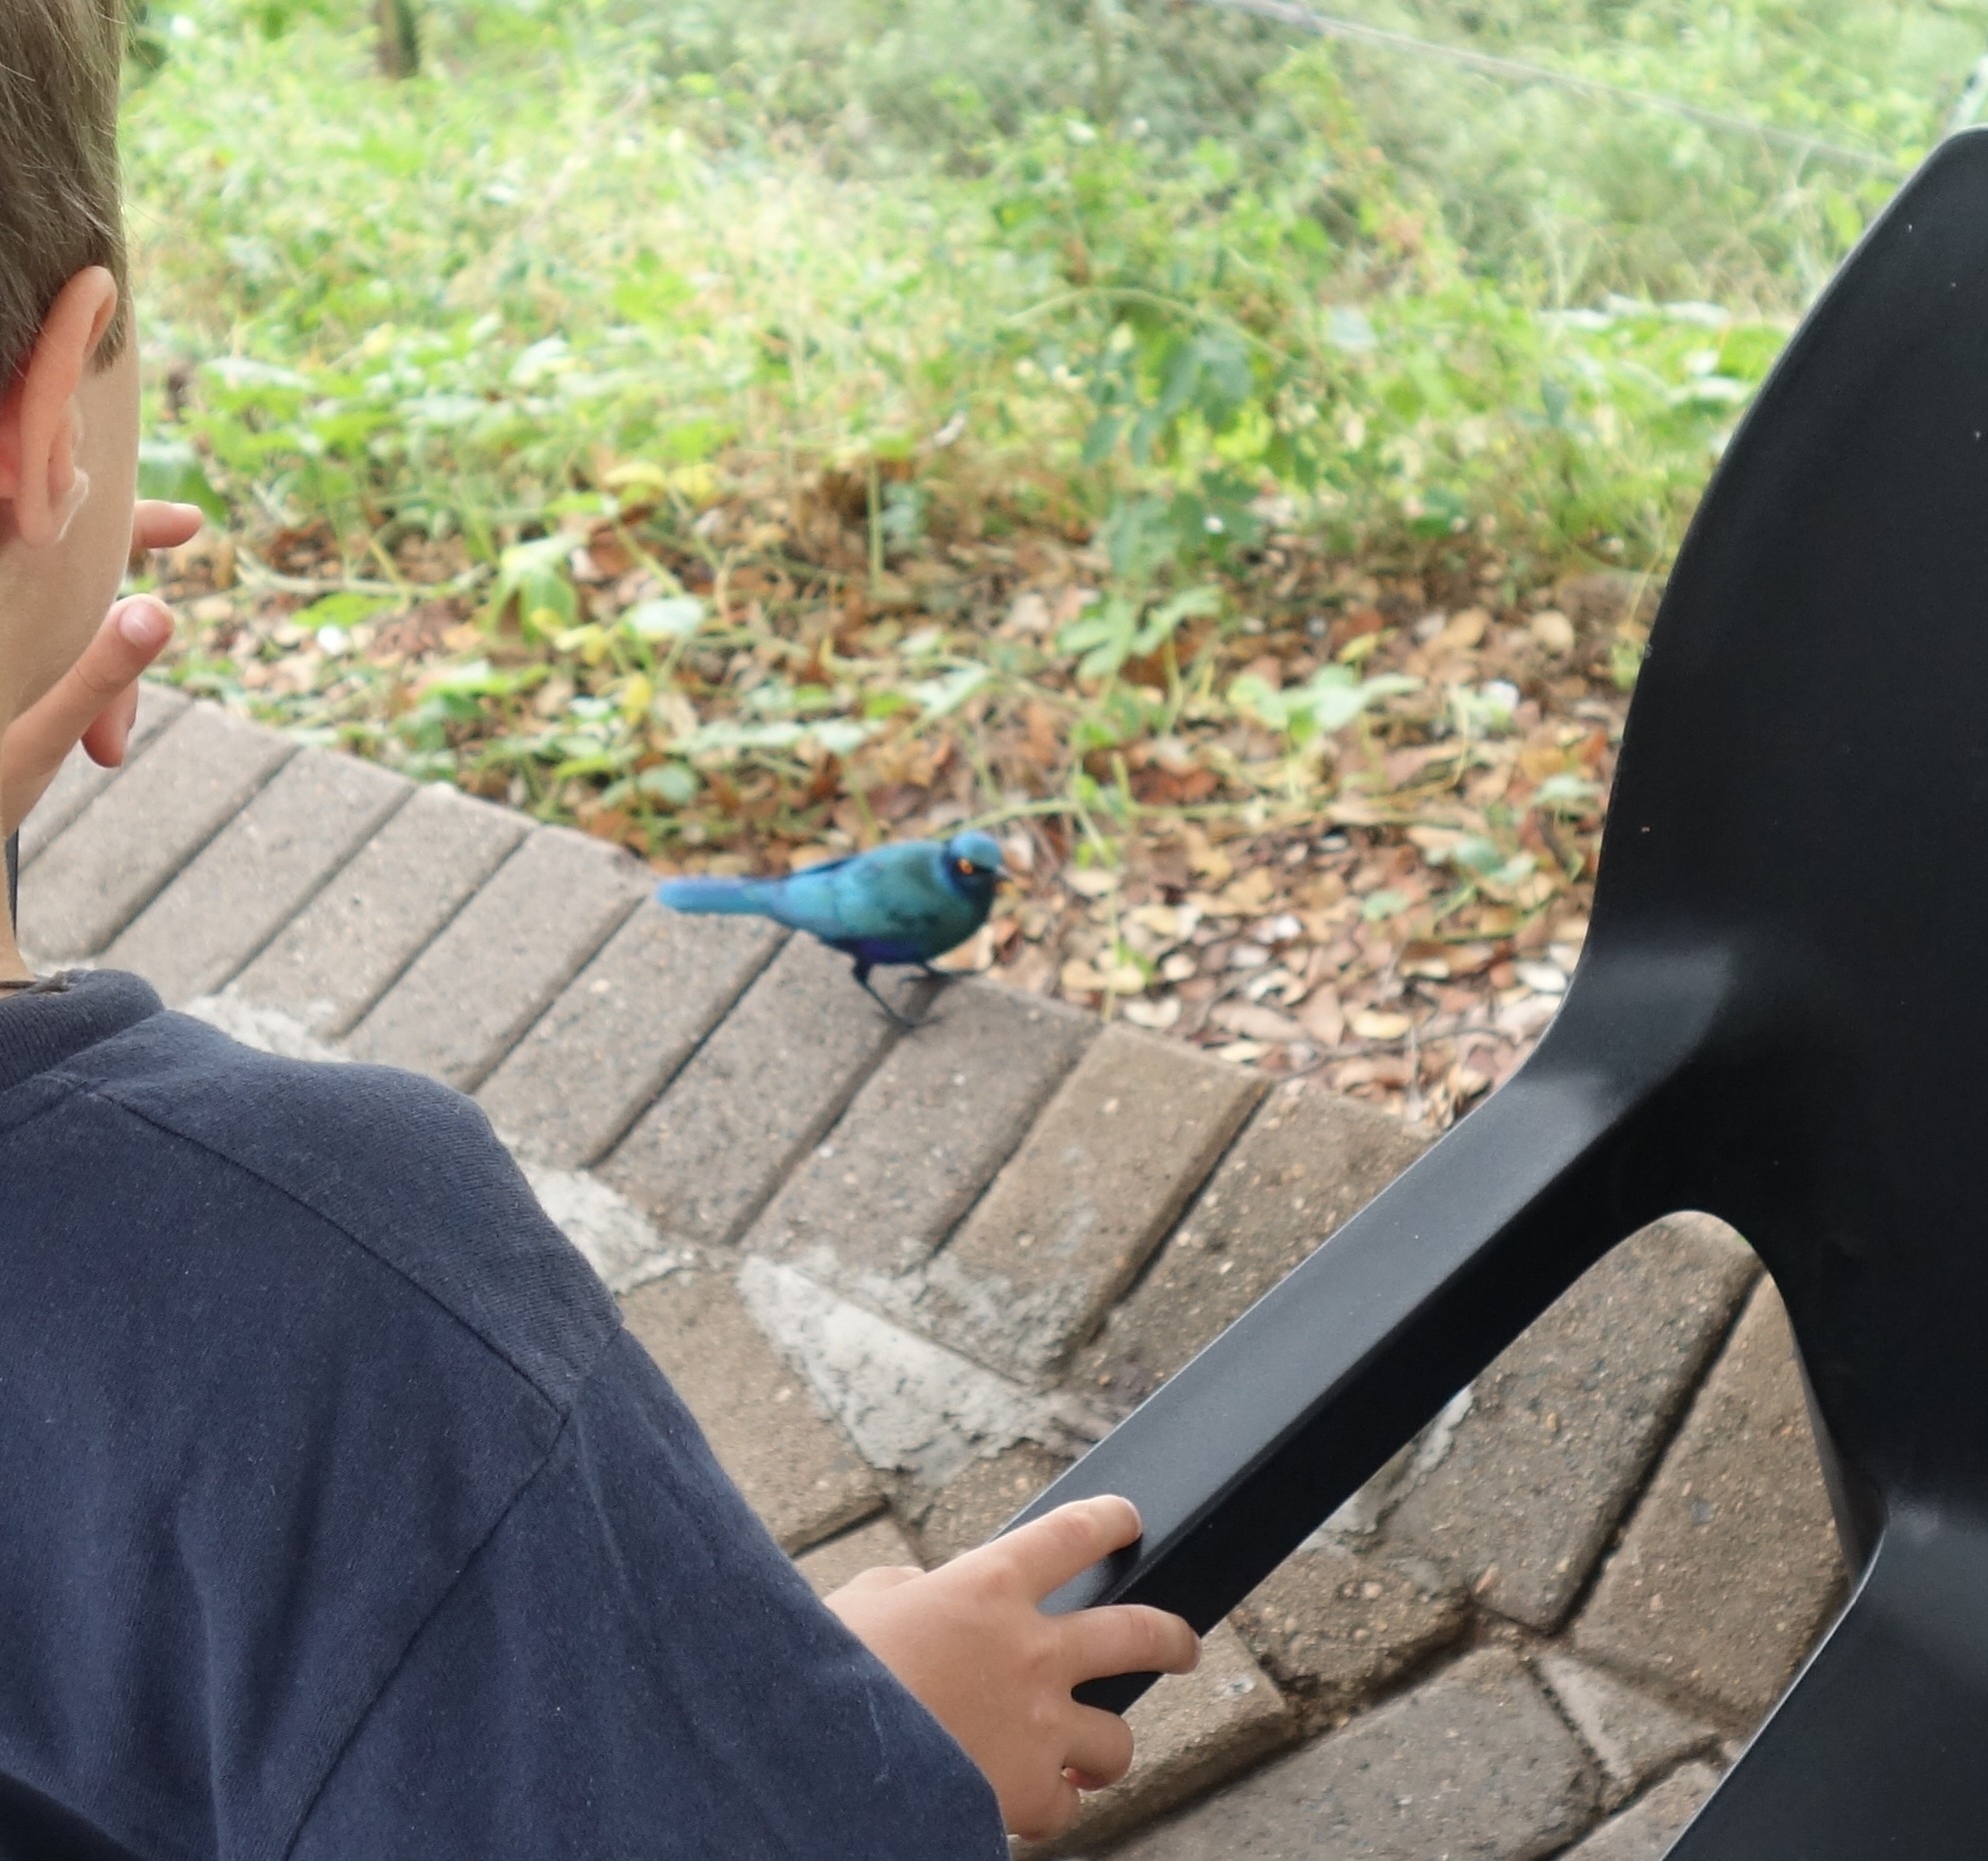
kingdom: Animalia
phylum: Chordata
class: Aves
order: Passeriformes
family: Sturnidae
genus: Lamprotornis
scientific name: Lamprotornis chalybaeus
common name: Greater blue-eared starling
